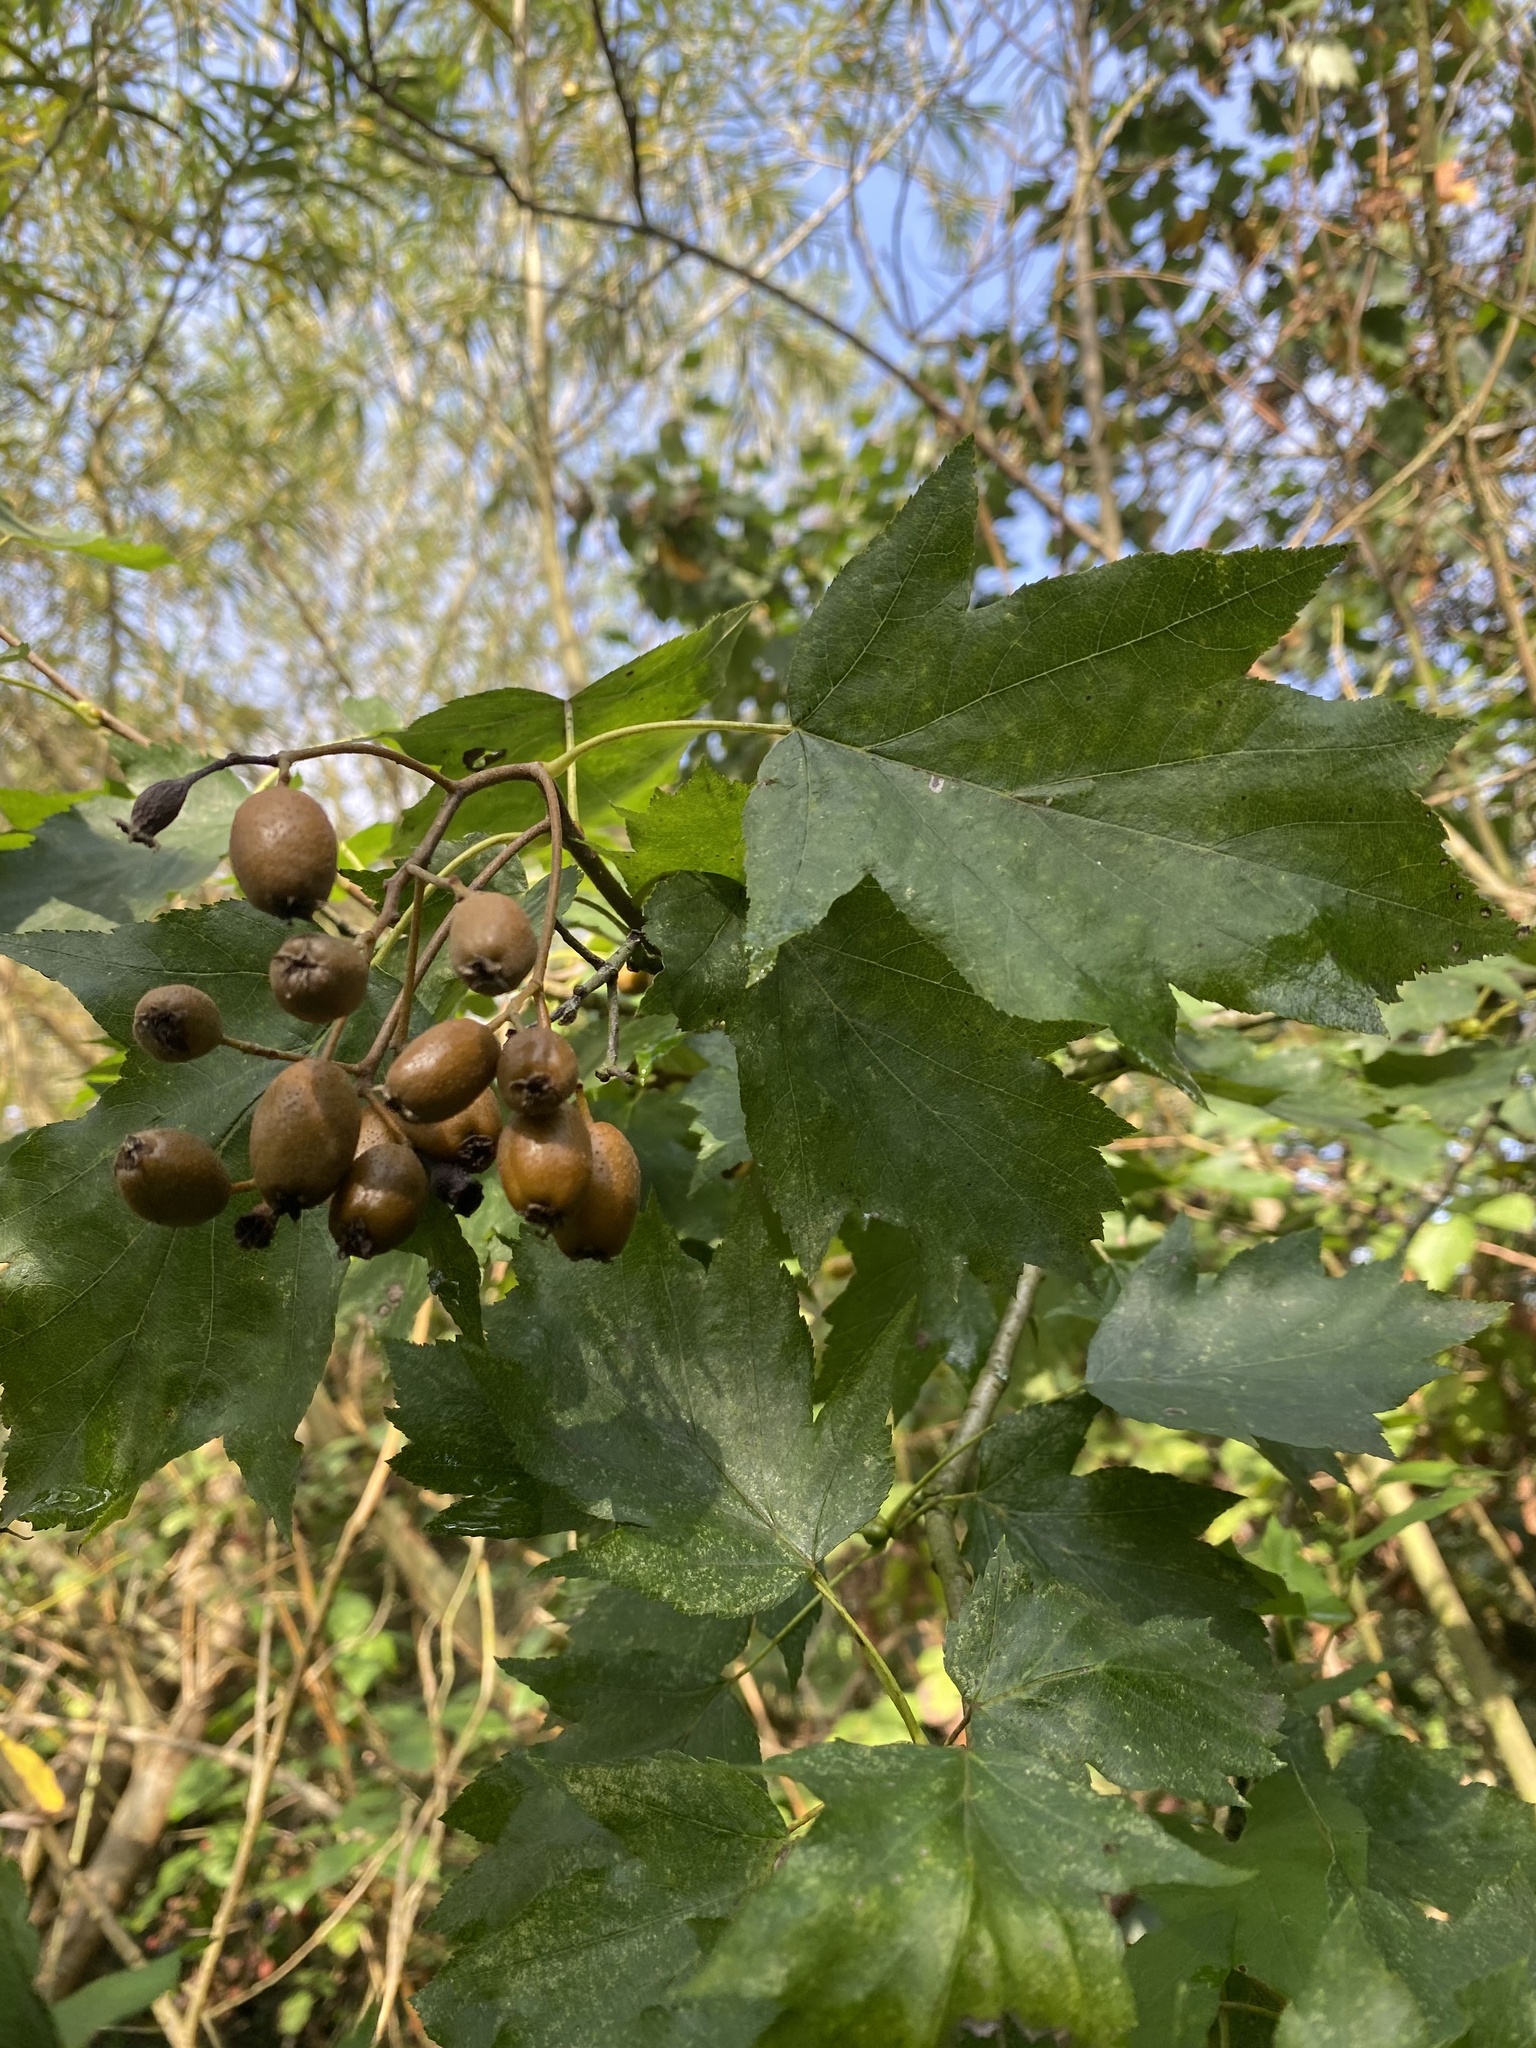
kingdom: Plantae
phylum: Tracheophyta
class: Magnoliopsida
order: Rosales
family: Rosaceae
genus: Torminalis
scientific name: Torminalis glaberrima
